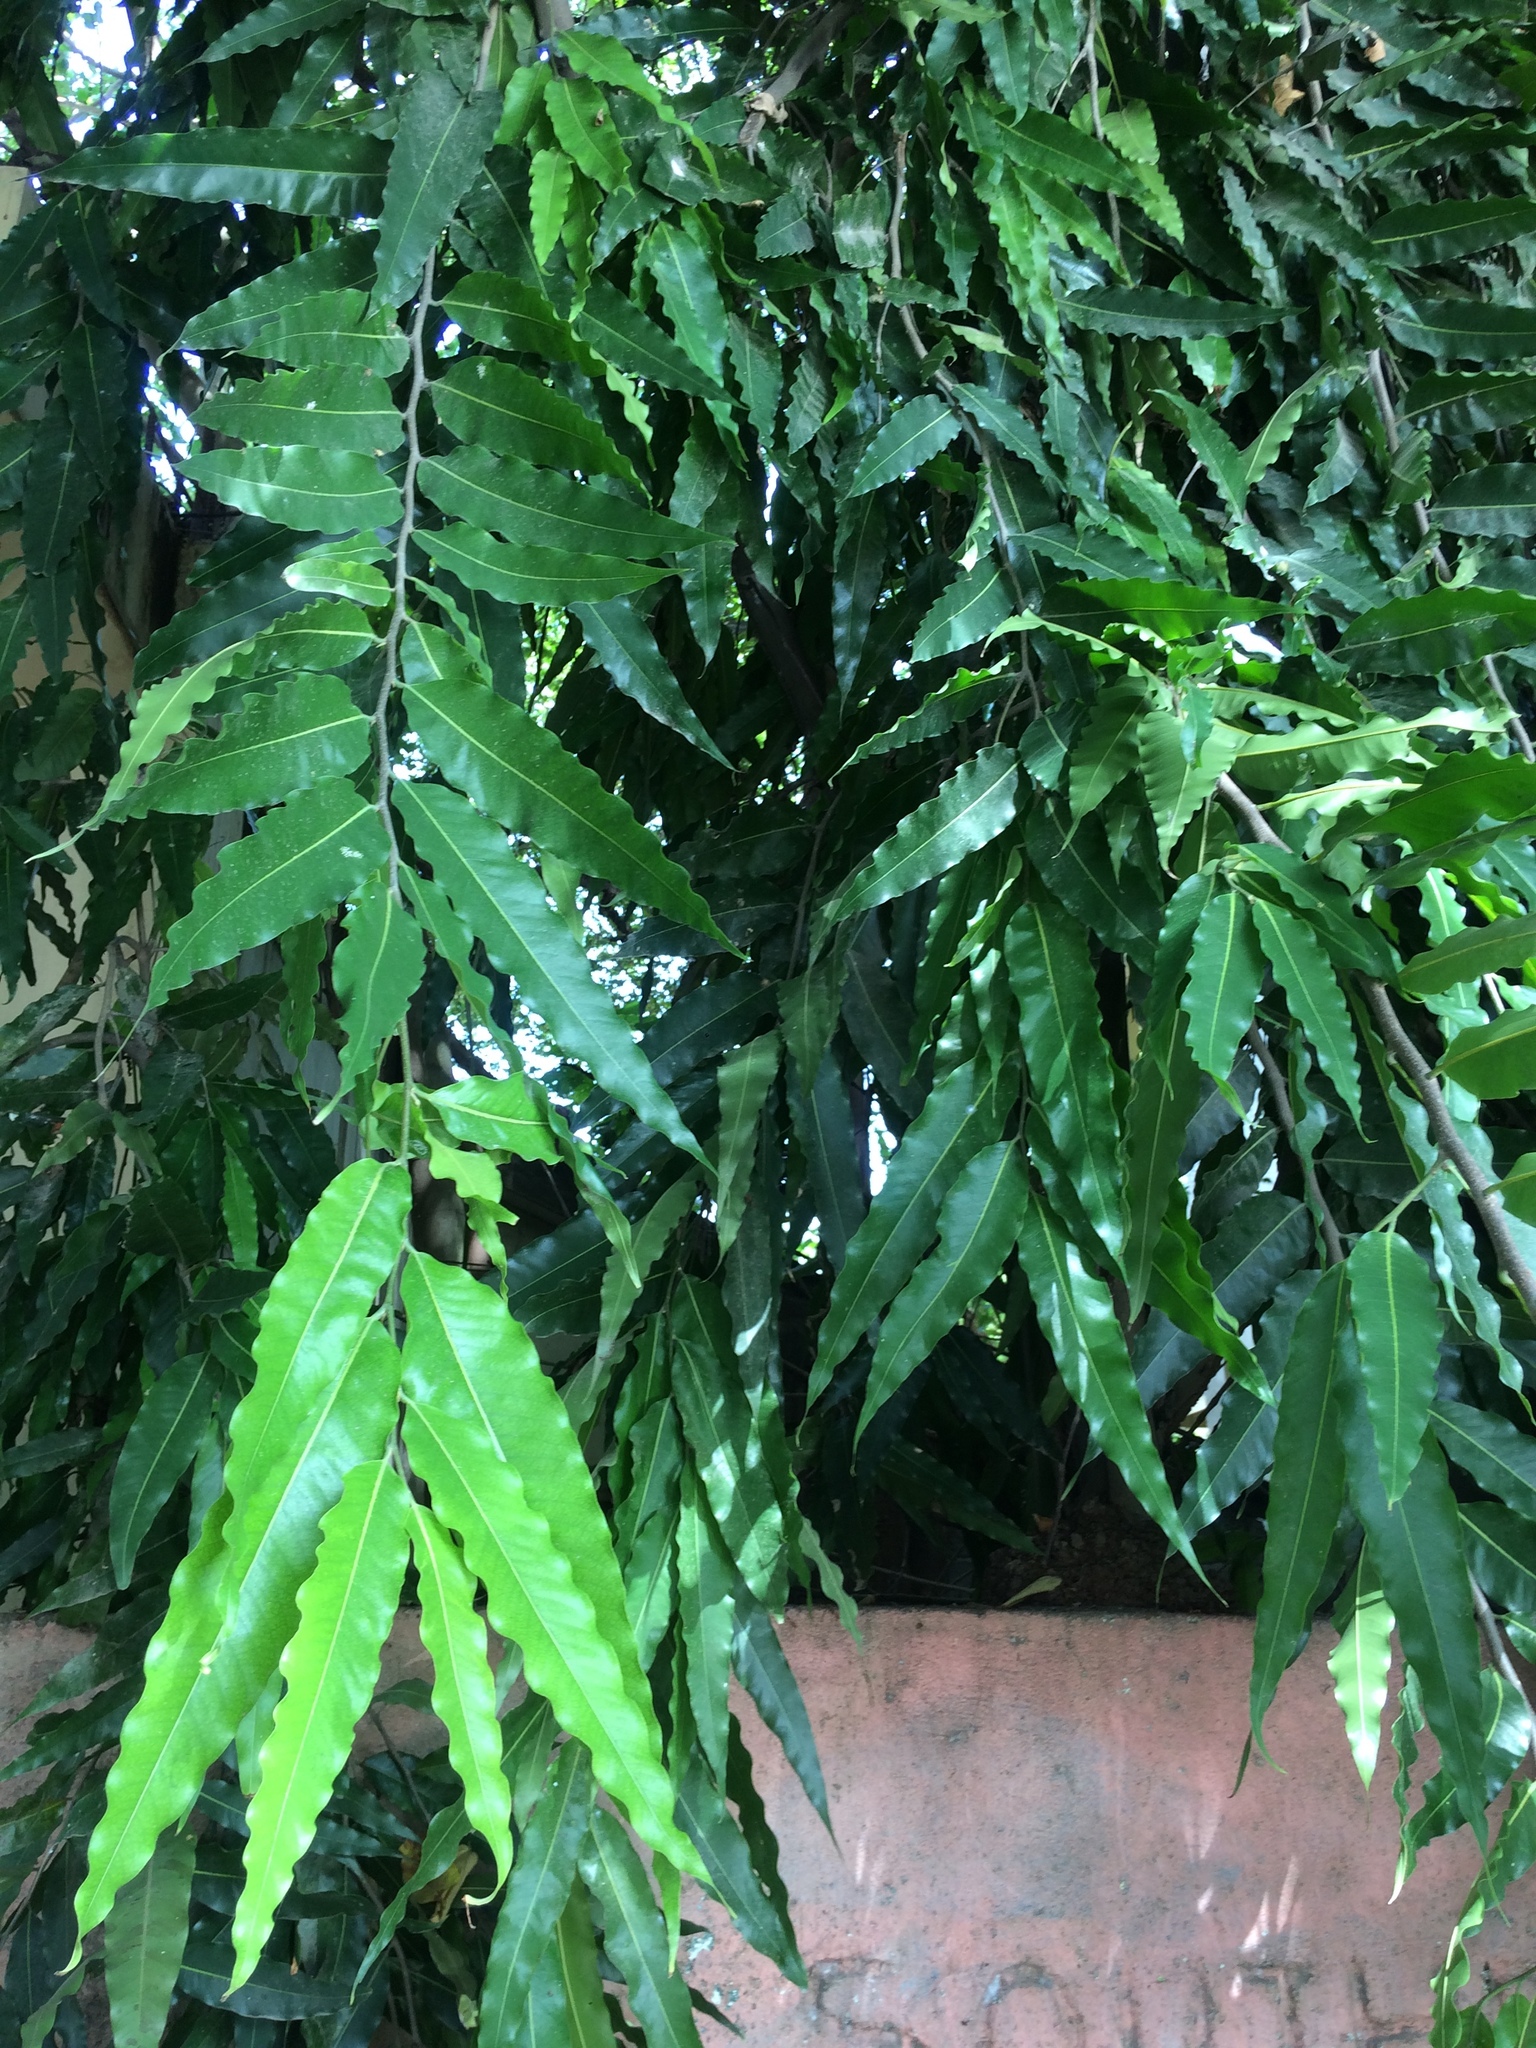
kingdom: Plantae
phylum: Tracheophyta
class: Magnoliopsida
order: Magnoliales
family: Annonaceae
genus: Polyalthia
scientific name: Polyalthia longifolia
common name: Cemetery-tree
